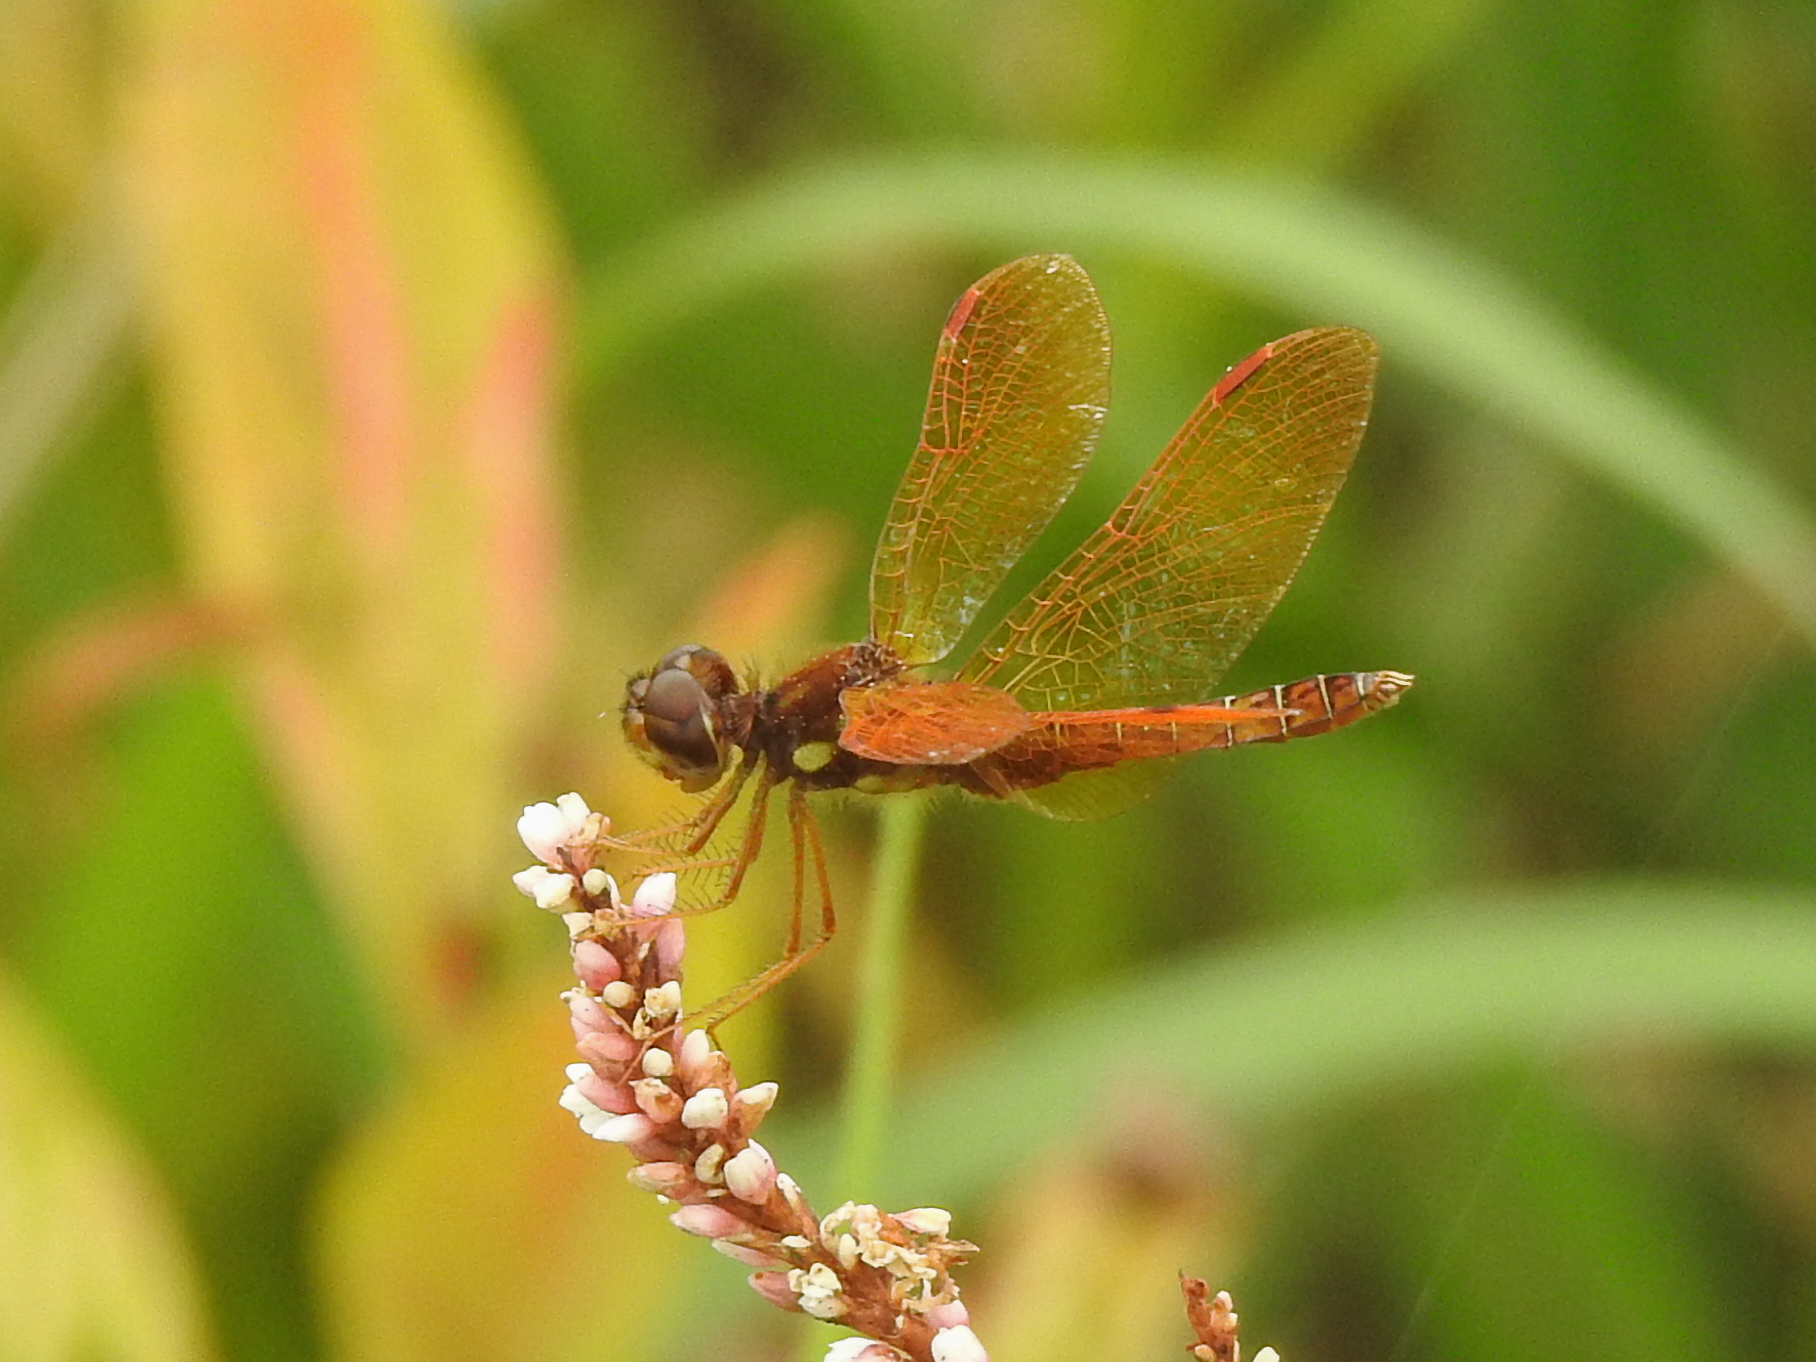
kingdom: Animalia
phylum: Arthropoda
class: Insecta
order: Odonata
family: Libellulidae
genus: Perithemis
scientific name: Perithemis tenera
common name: Eastern amberwing
